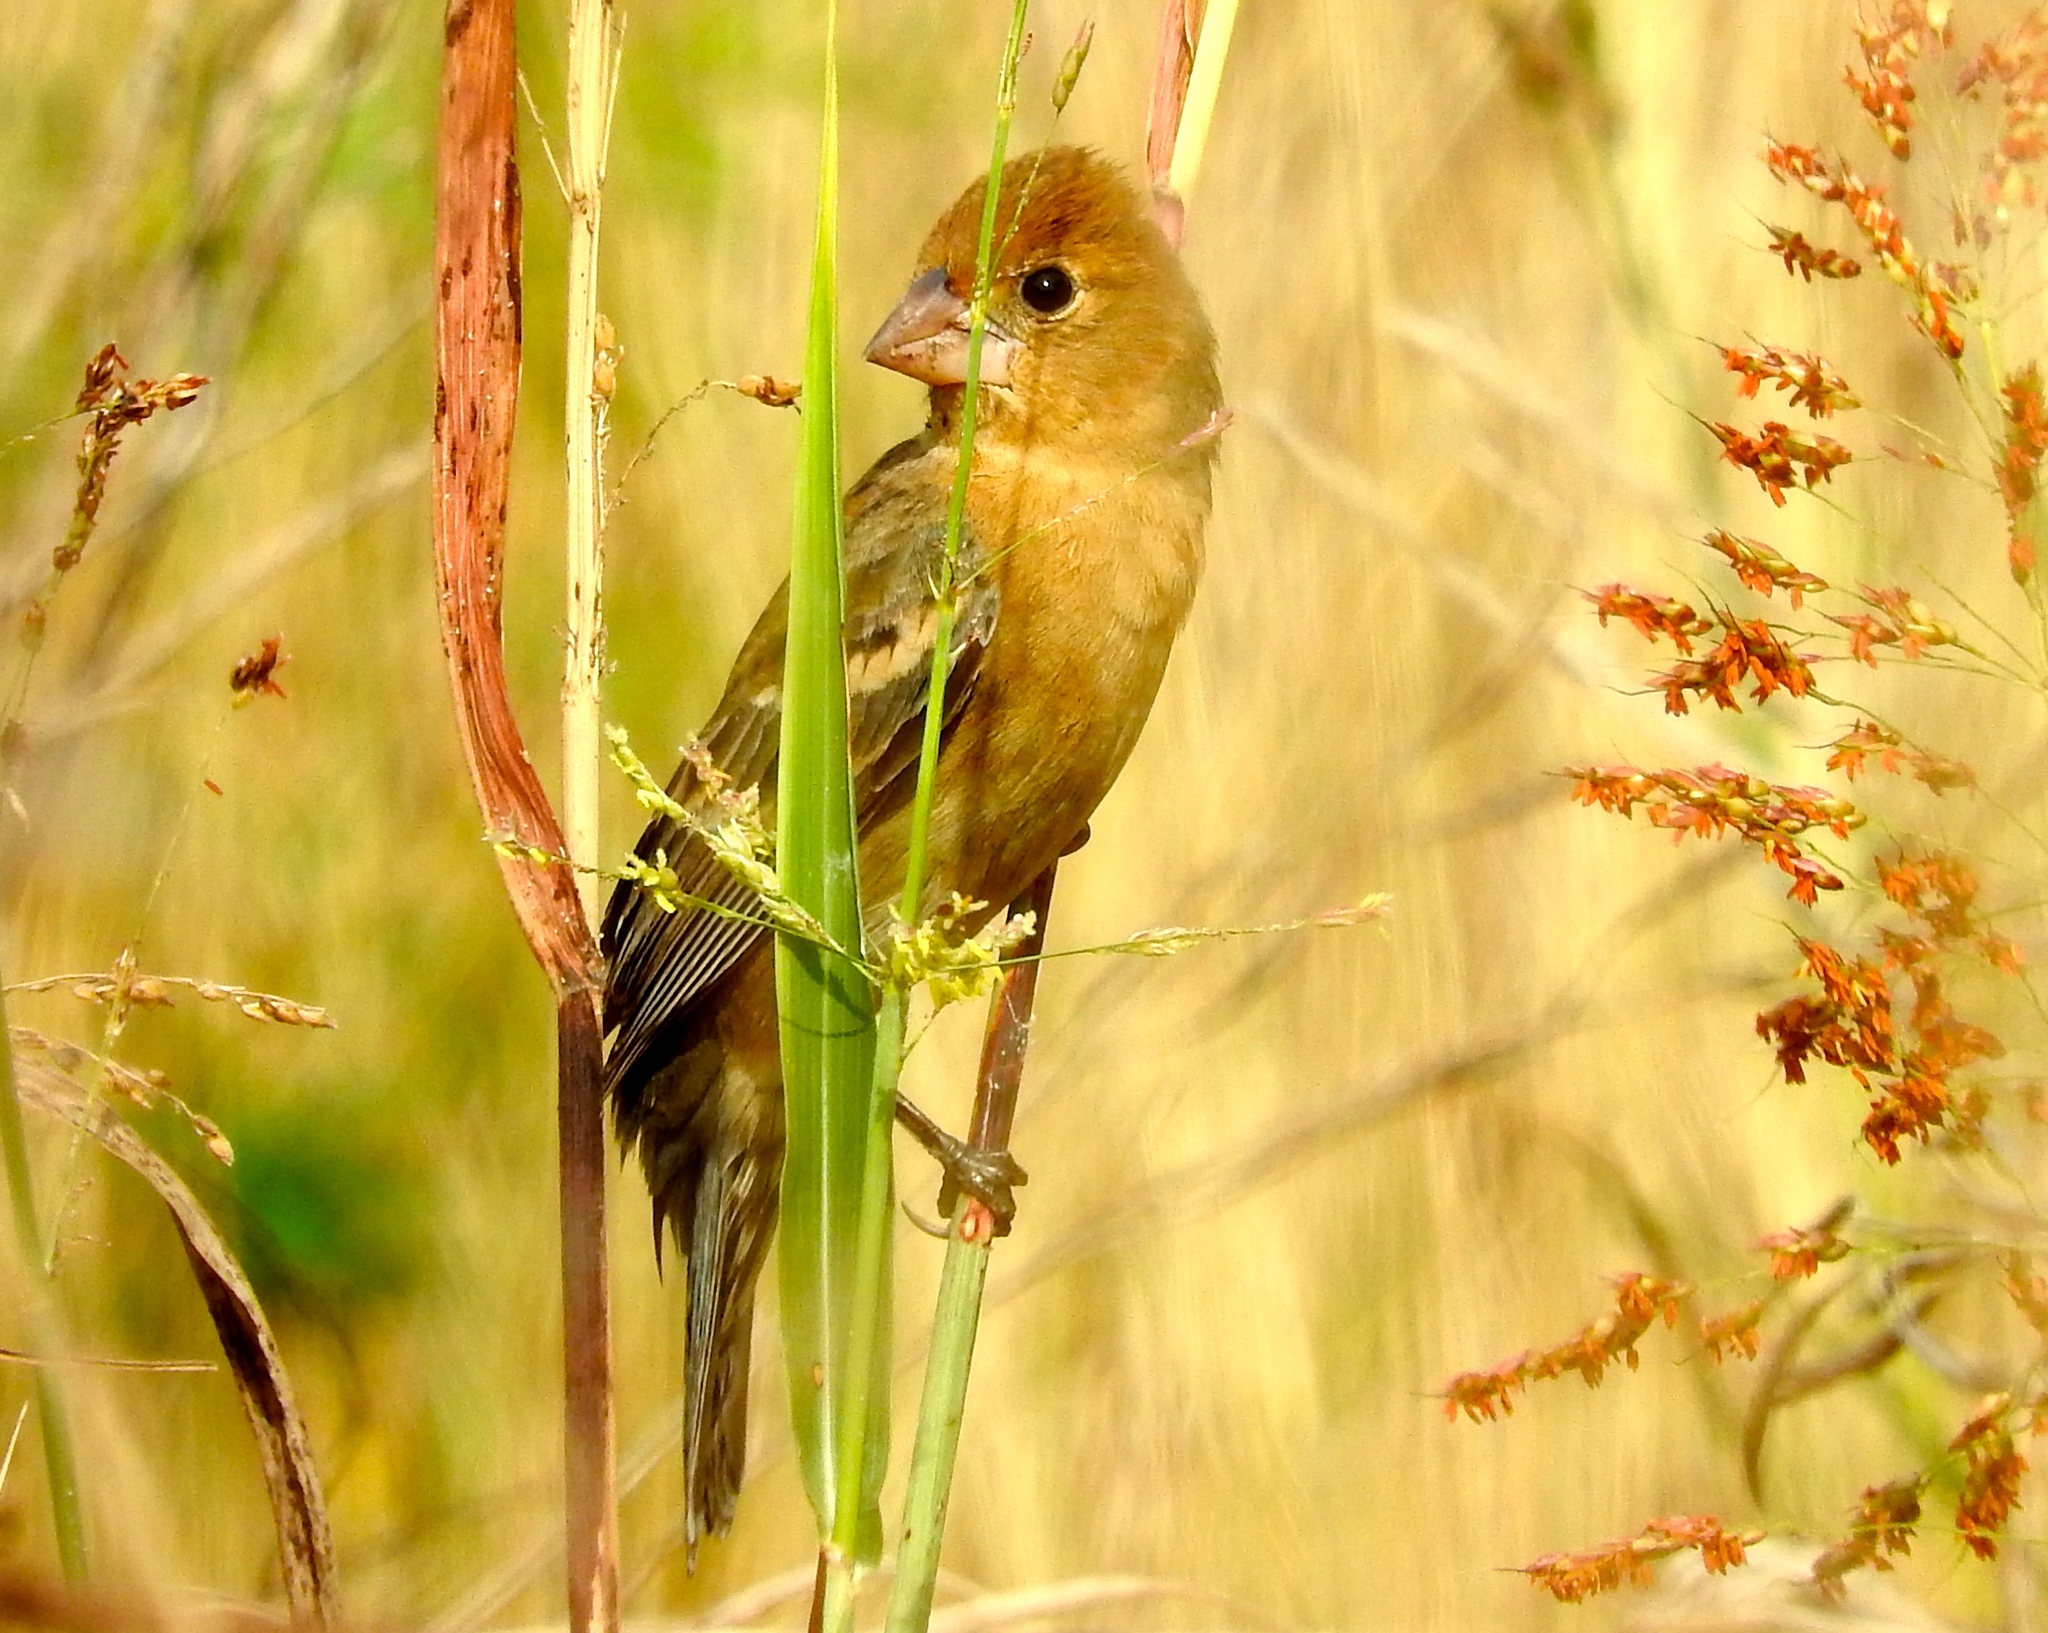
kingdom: Animalia
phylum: Chordata
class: Aves
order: Passeriformes
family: Cardinalidae
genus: Passerina
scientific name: Passerina caerulea
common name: Blue grosbeak
